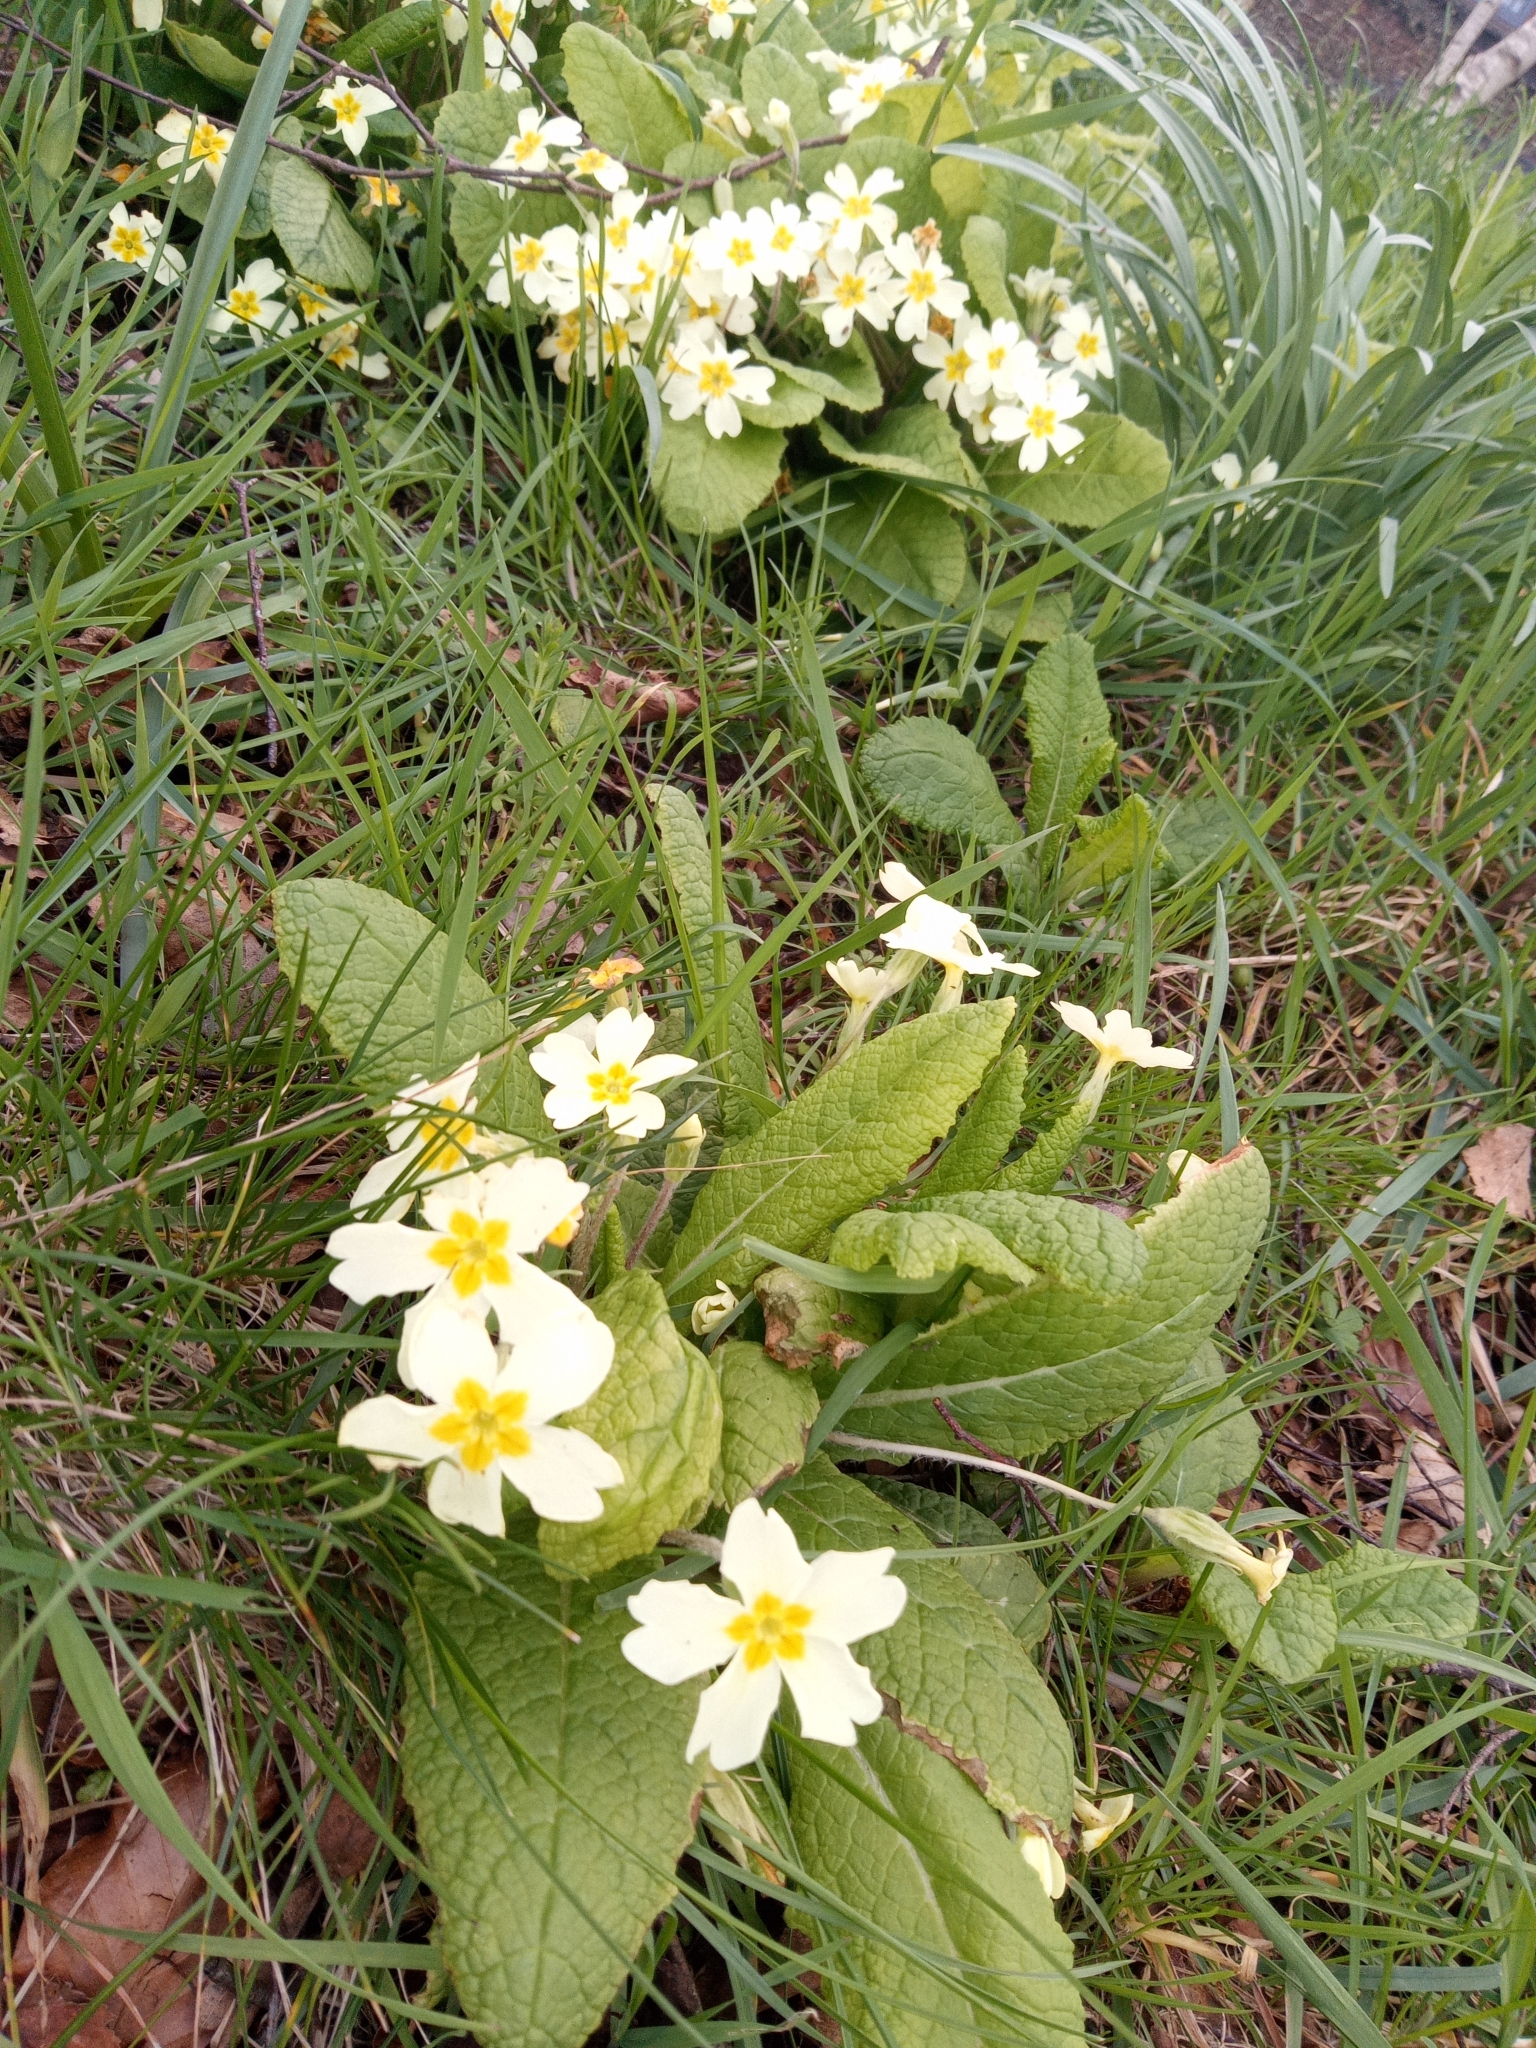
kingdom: Plantae
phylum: Tracheophyta
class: Magnoliopsida
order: Ericales
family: Primulaceae
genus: Primula
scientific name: Primula vulgaris
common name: Primrose
